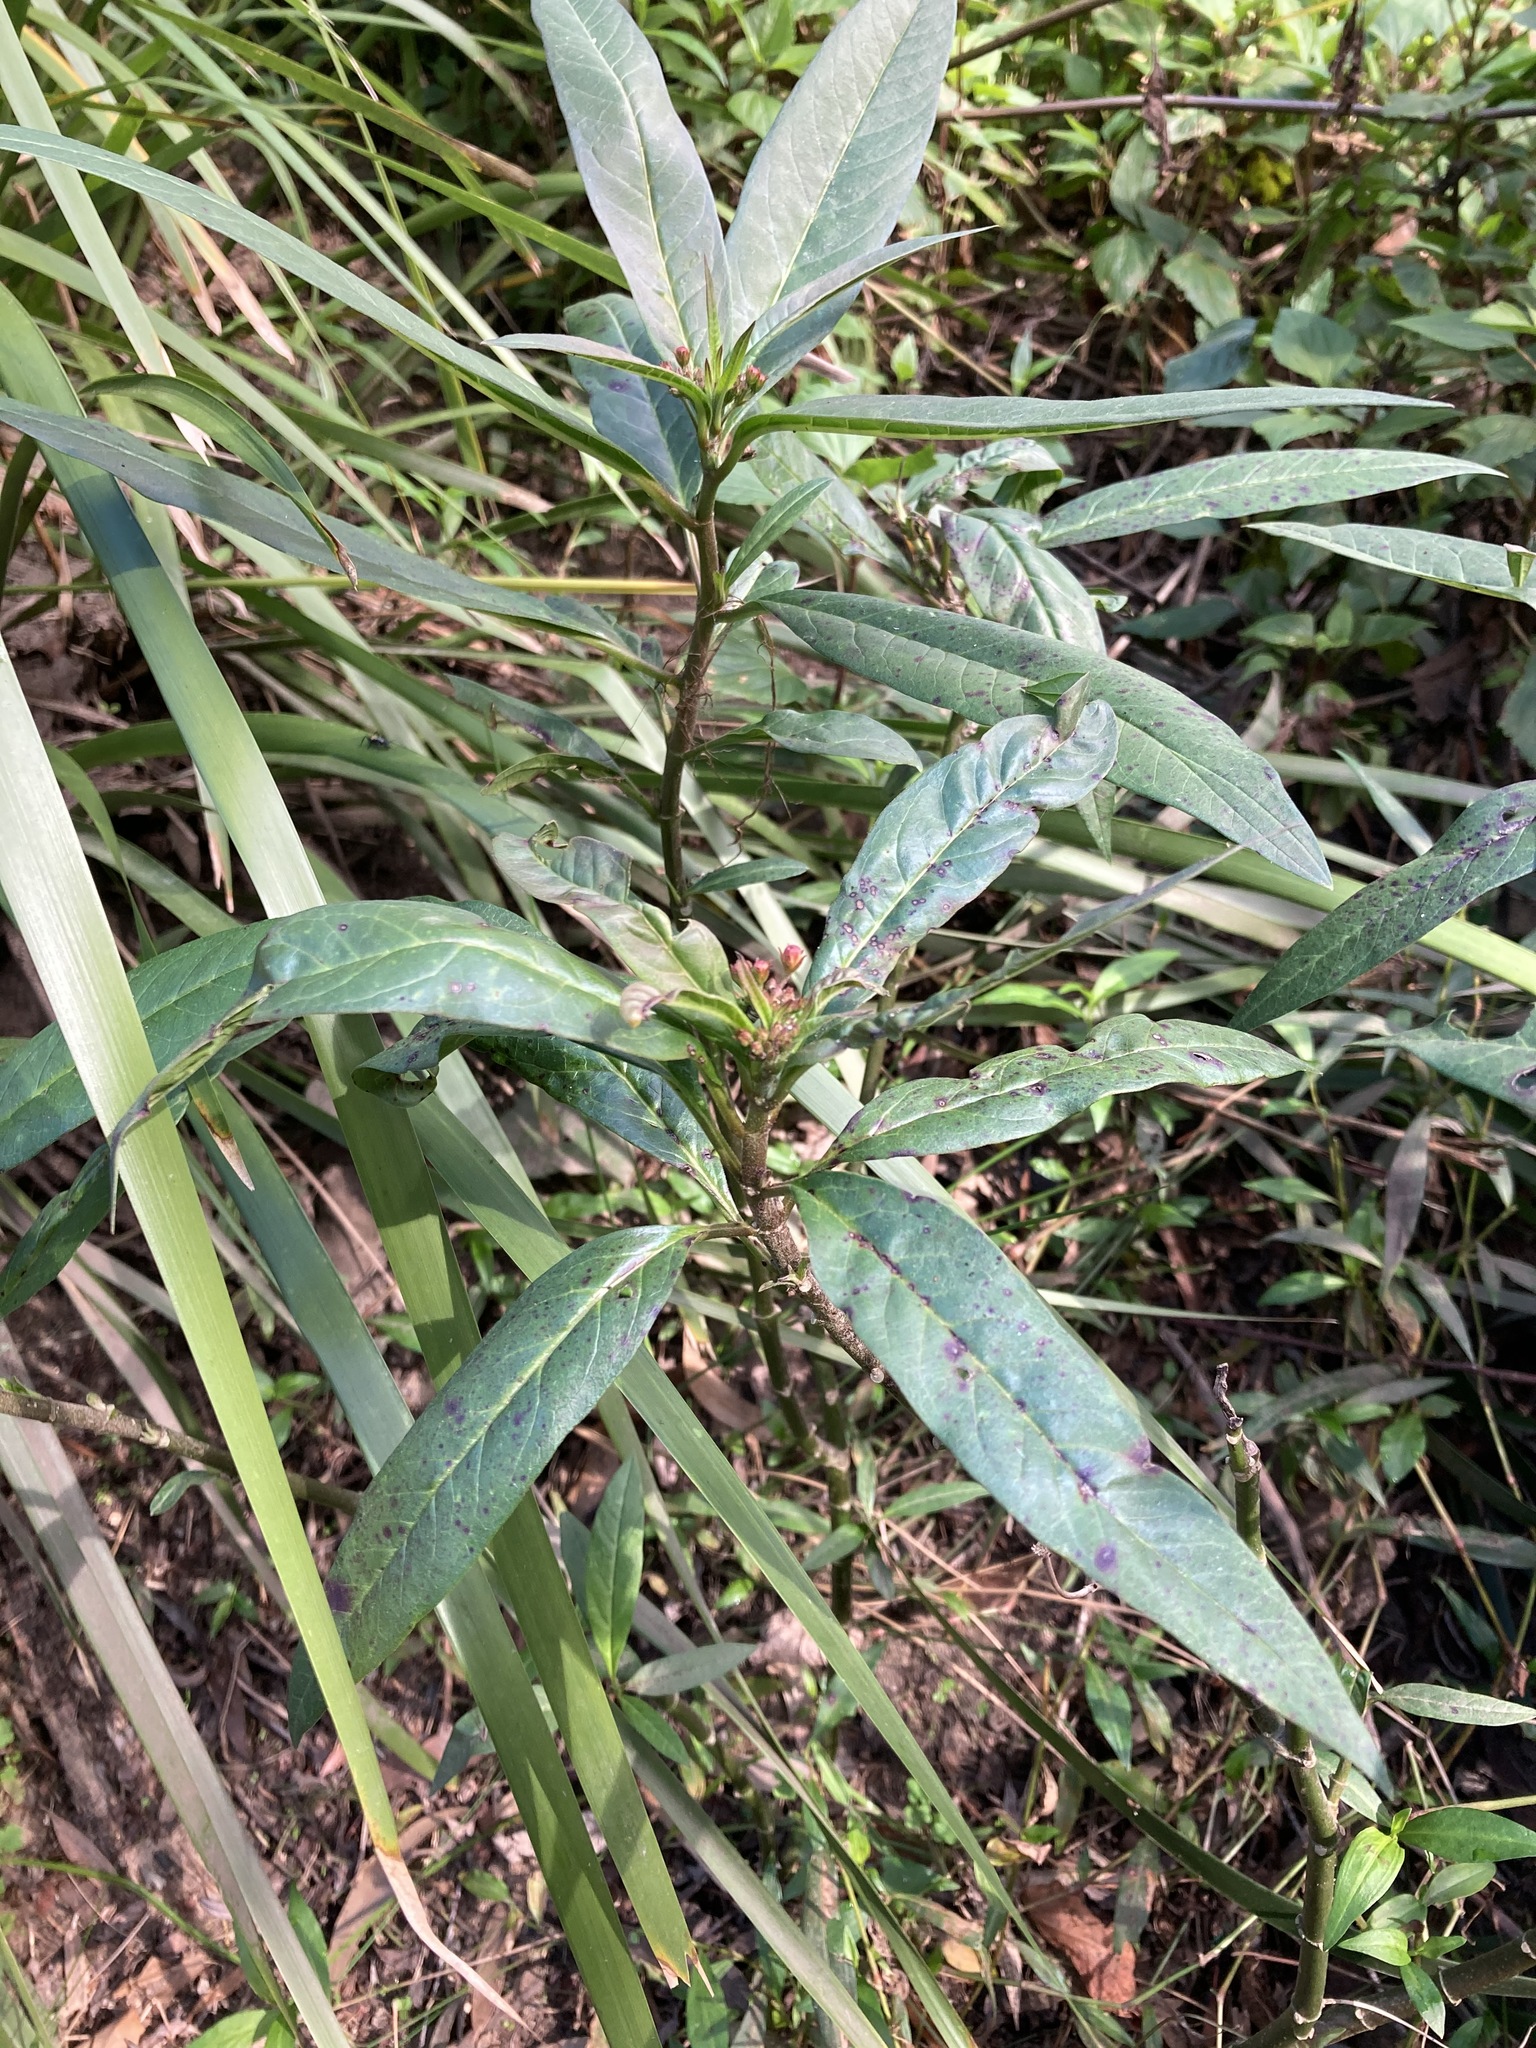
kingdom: Plantae
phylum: Tracheophyta
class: Magnoliopsida
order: Gentianales
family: Apocynaceae
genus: Asclepias
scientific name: Asclepias curassavica
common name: Bloodflower
